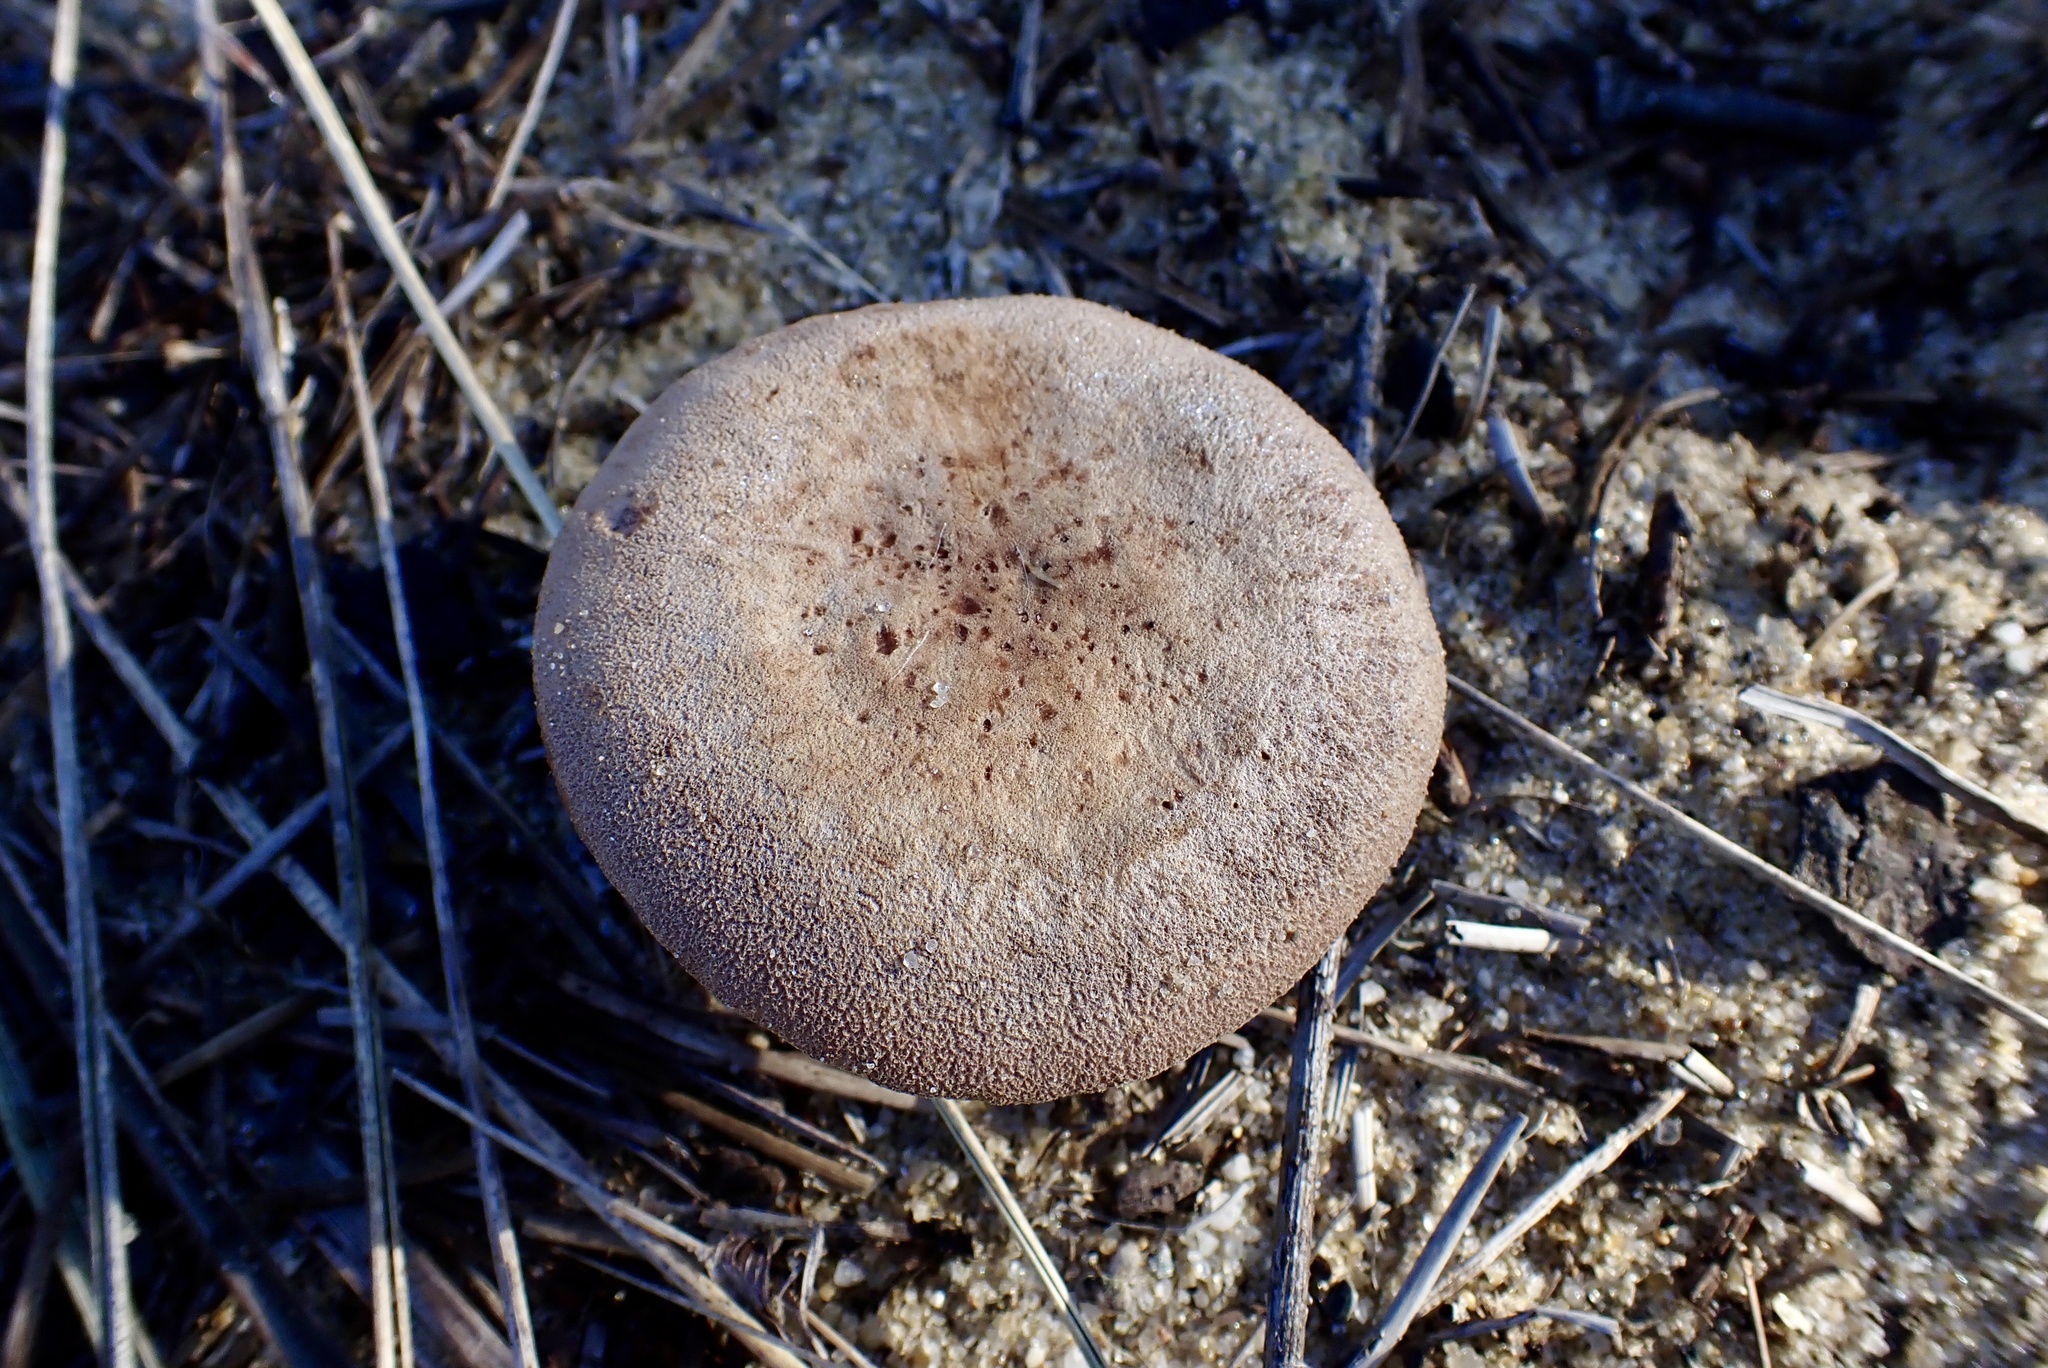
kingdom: Fungi
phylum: Basidiomycota
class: Agaricomycetes
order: Agaricales
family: Hydnangiaceae
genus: Laccaria
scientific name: Laccaria trullissata
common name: Sandy laccaria
